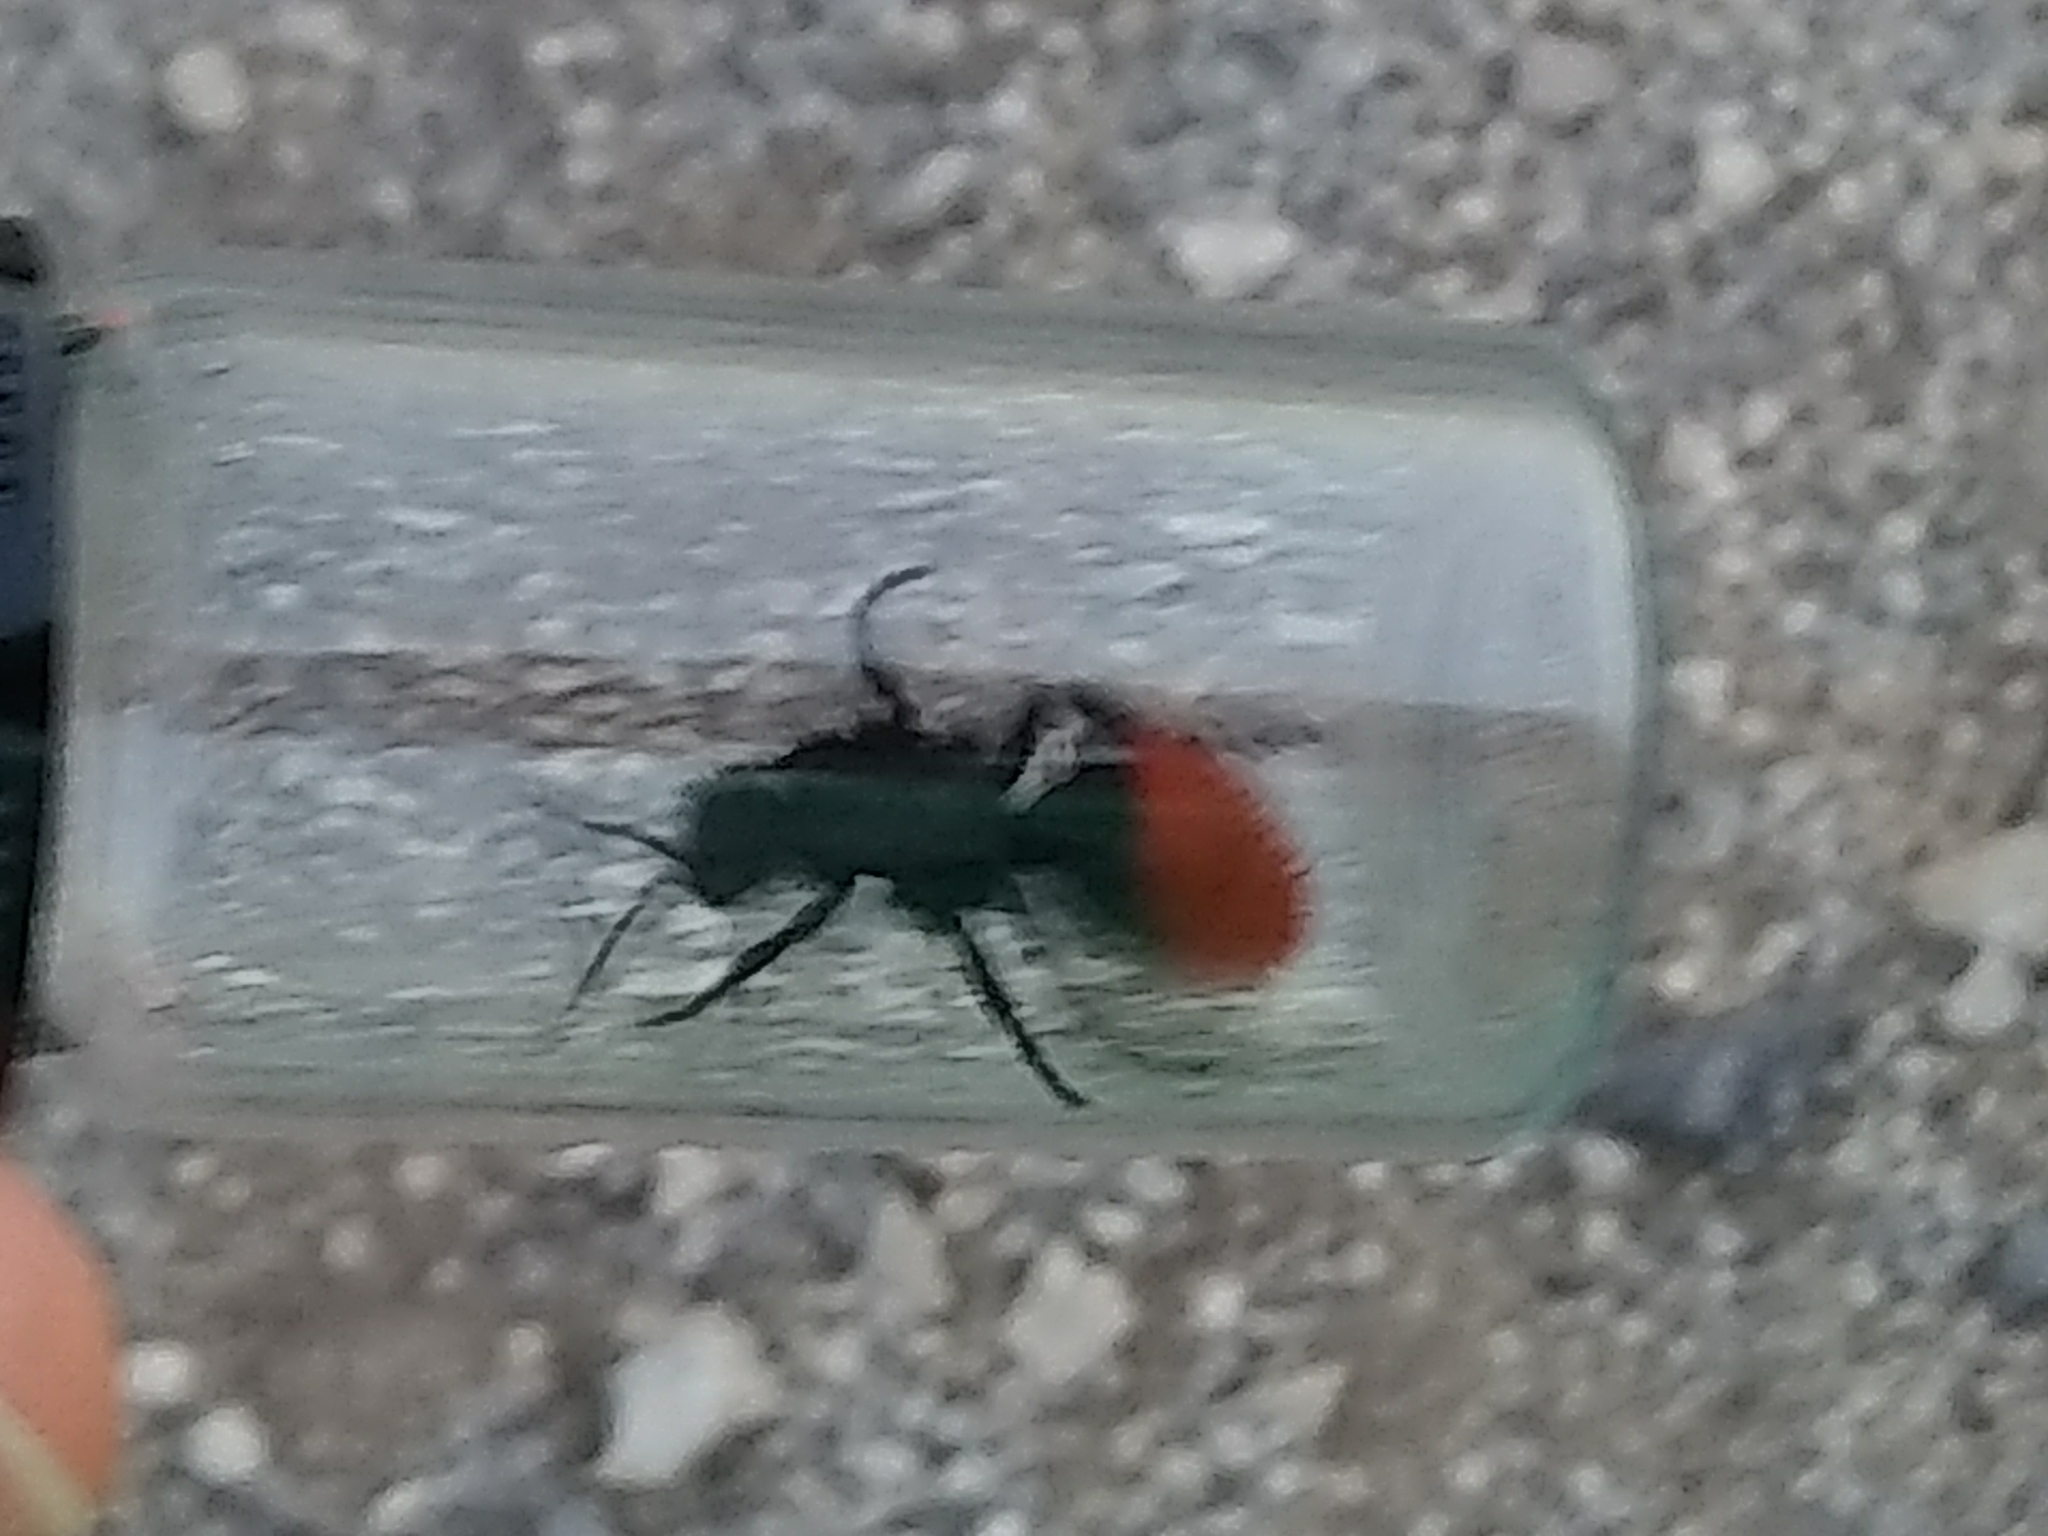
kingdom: Animalia
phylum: Arthropoda
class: Insecta
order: Hymenoptera
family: Mutillidae
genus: Dasymutilla
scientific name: Dasymutilla
